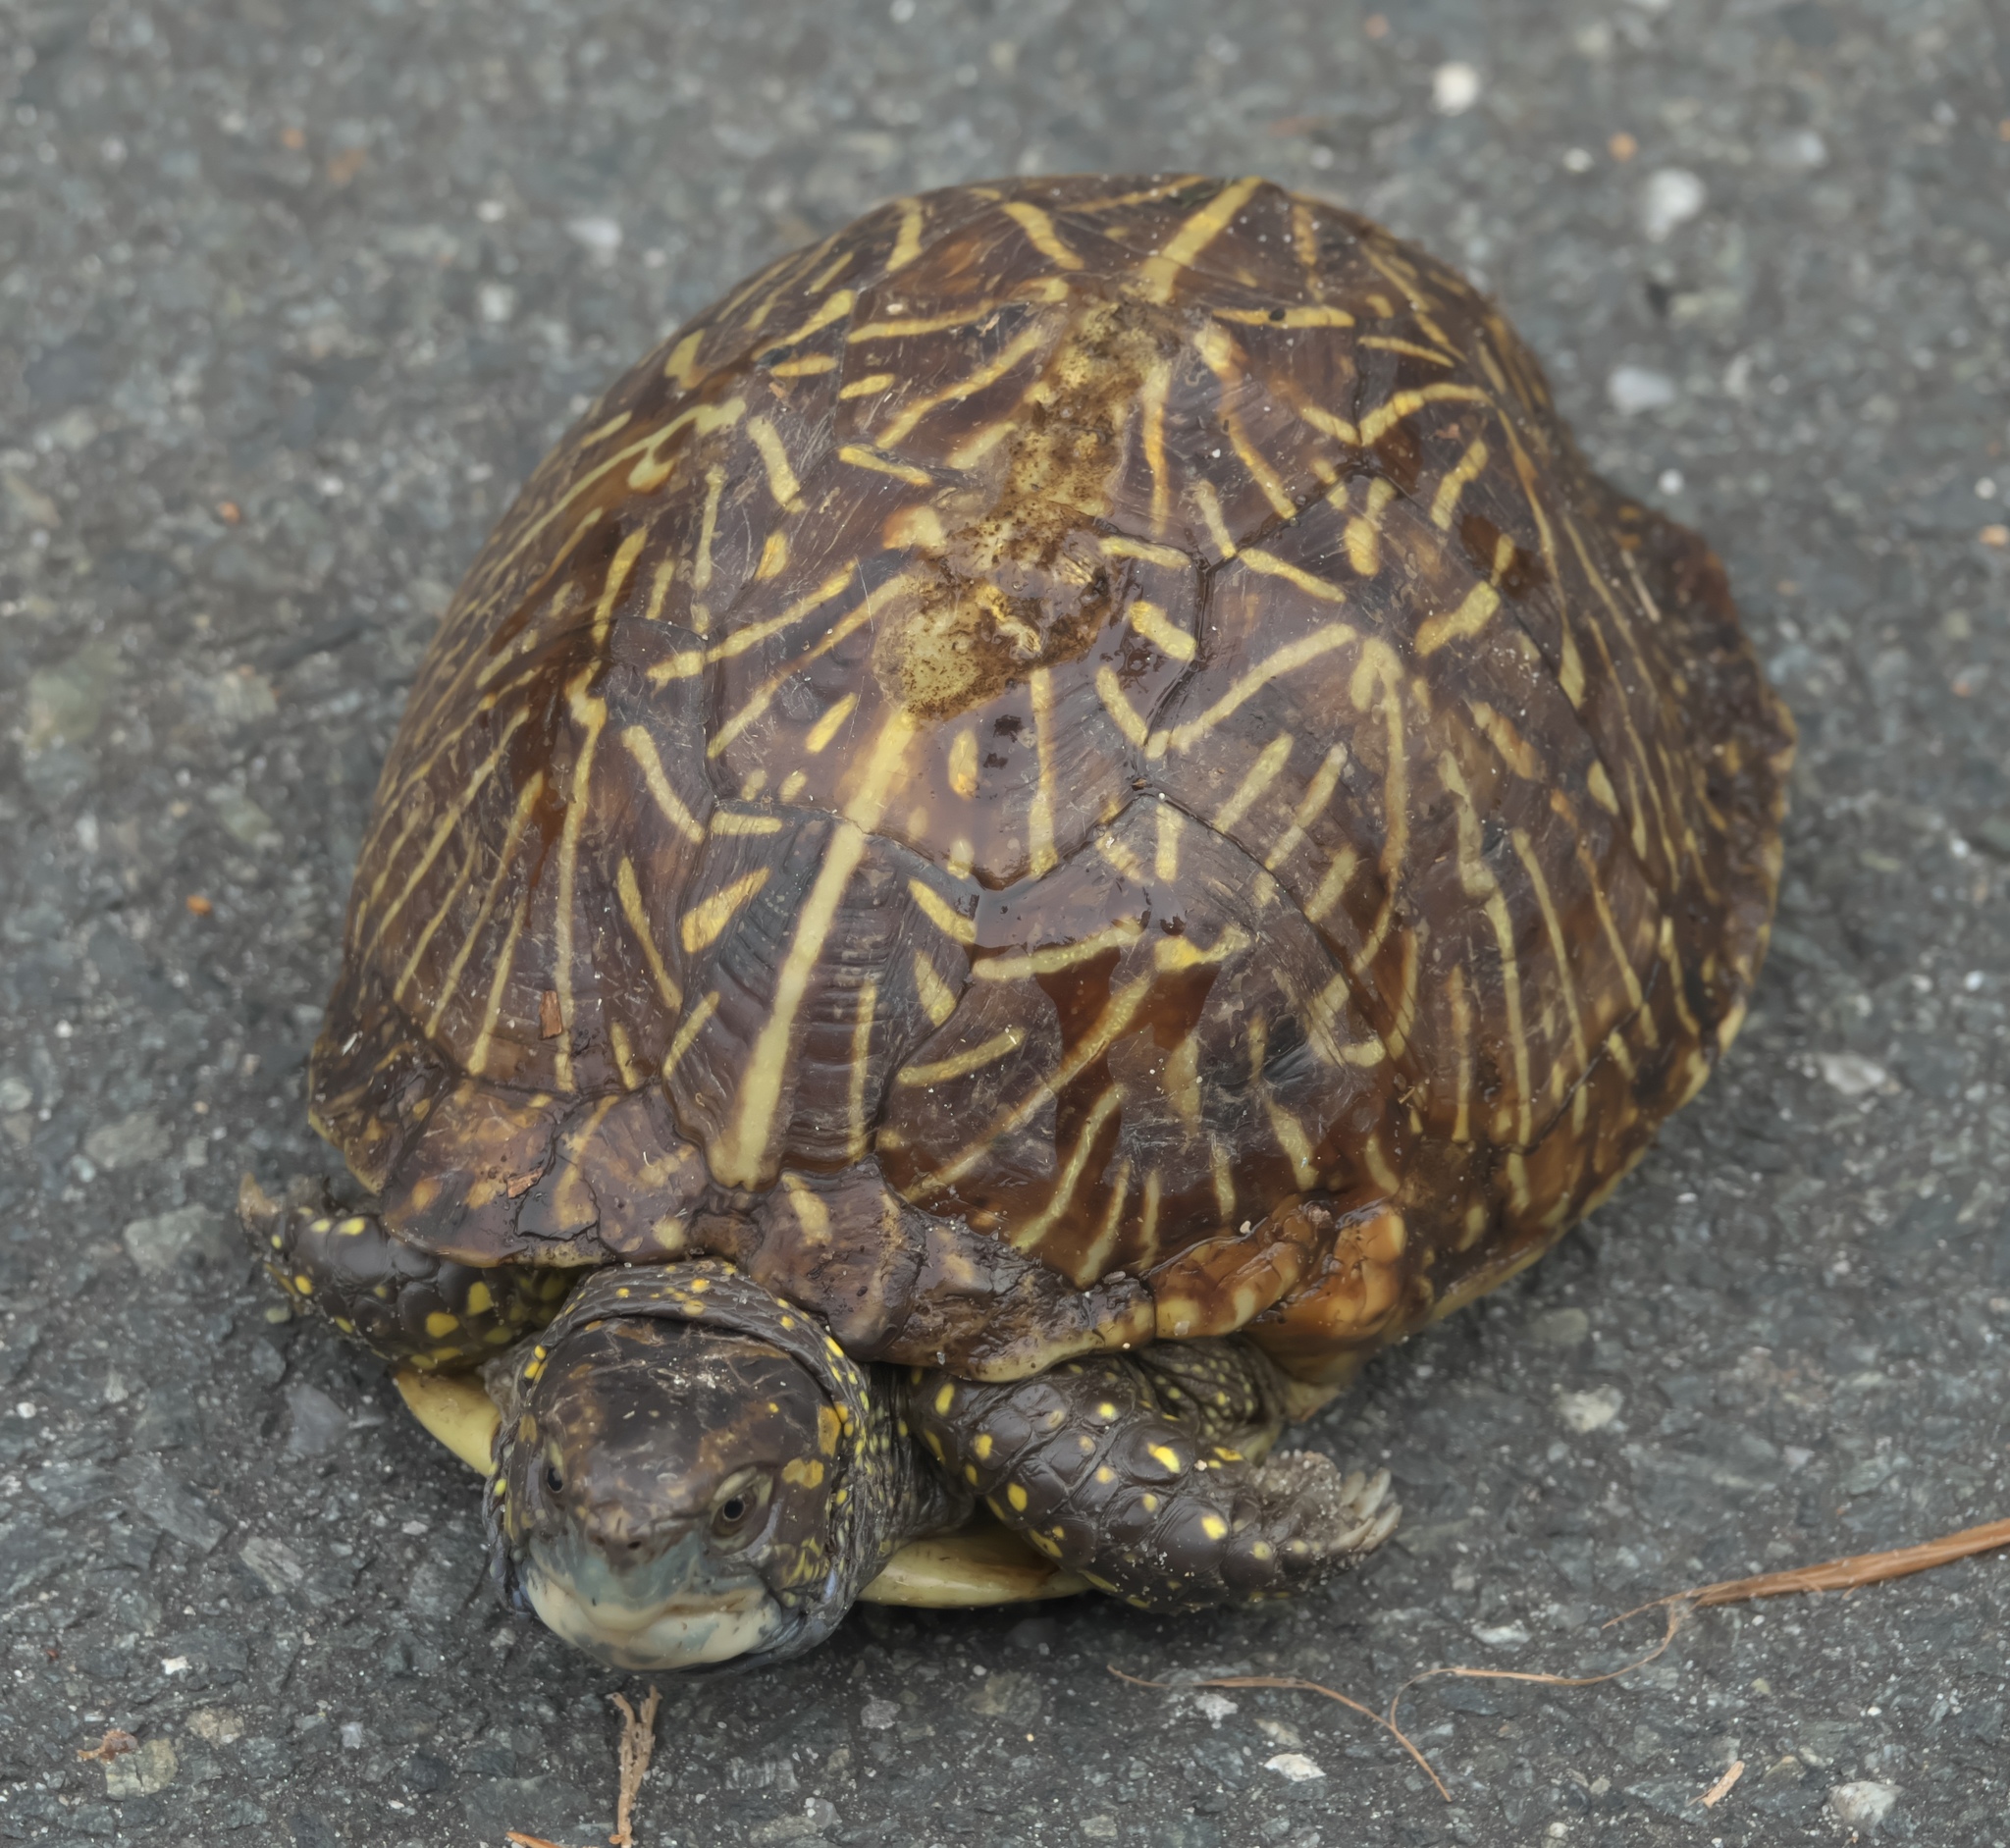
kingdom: Animalia
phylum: Chordata
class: Testudines
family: Emydidae
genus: Terrapene
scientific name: Terrapene carolina
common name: Common box turtle
